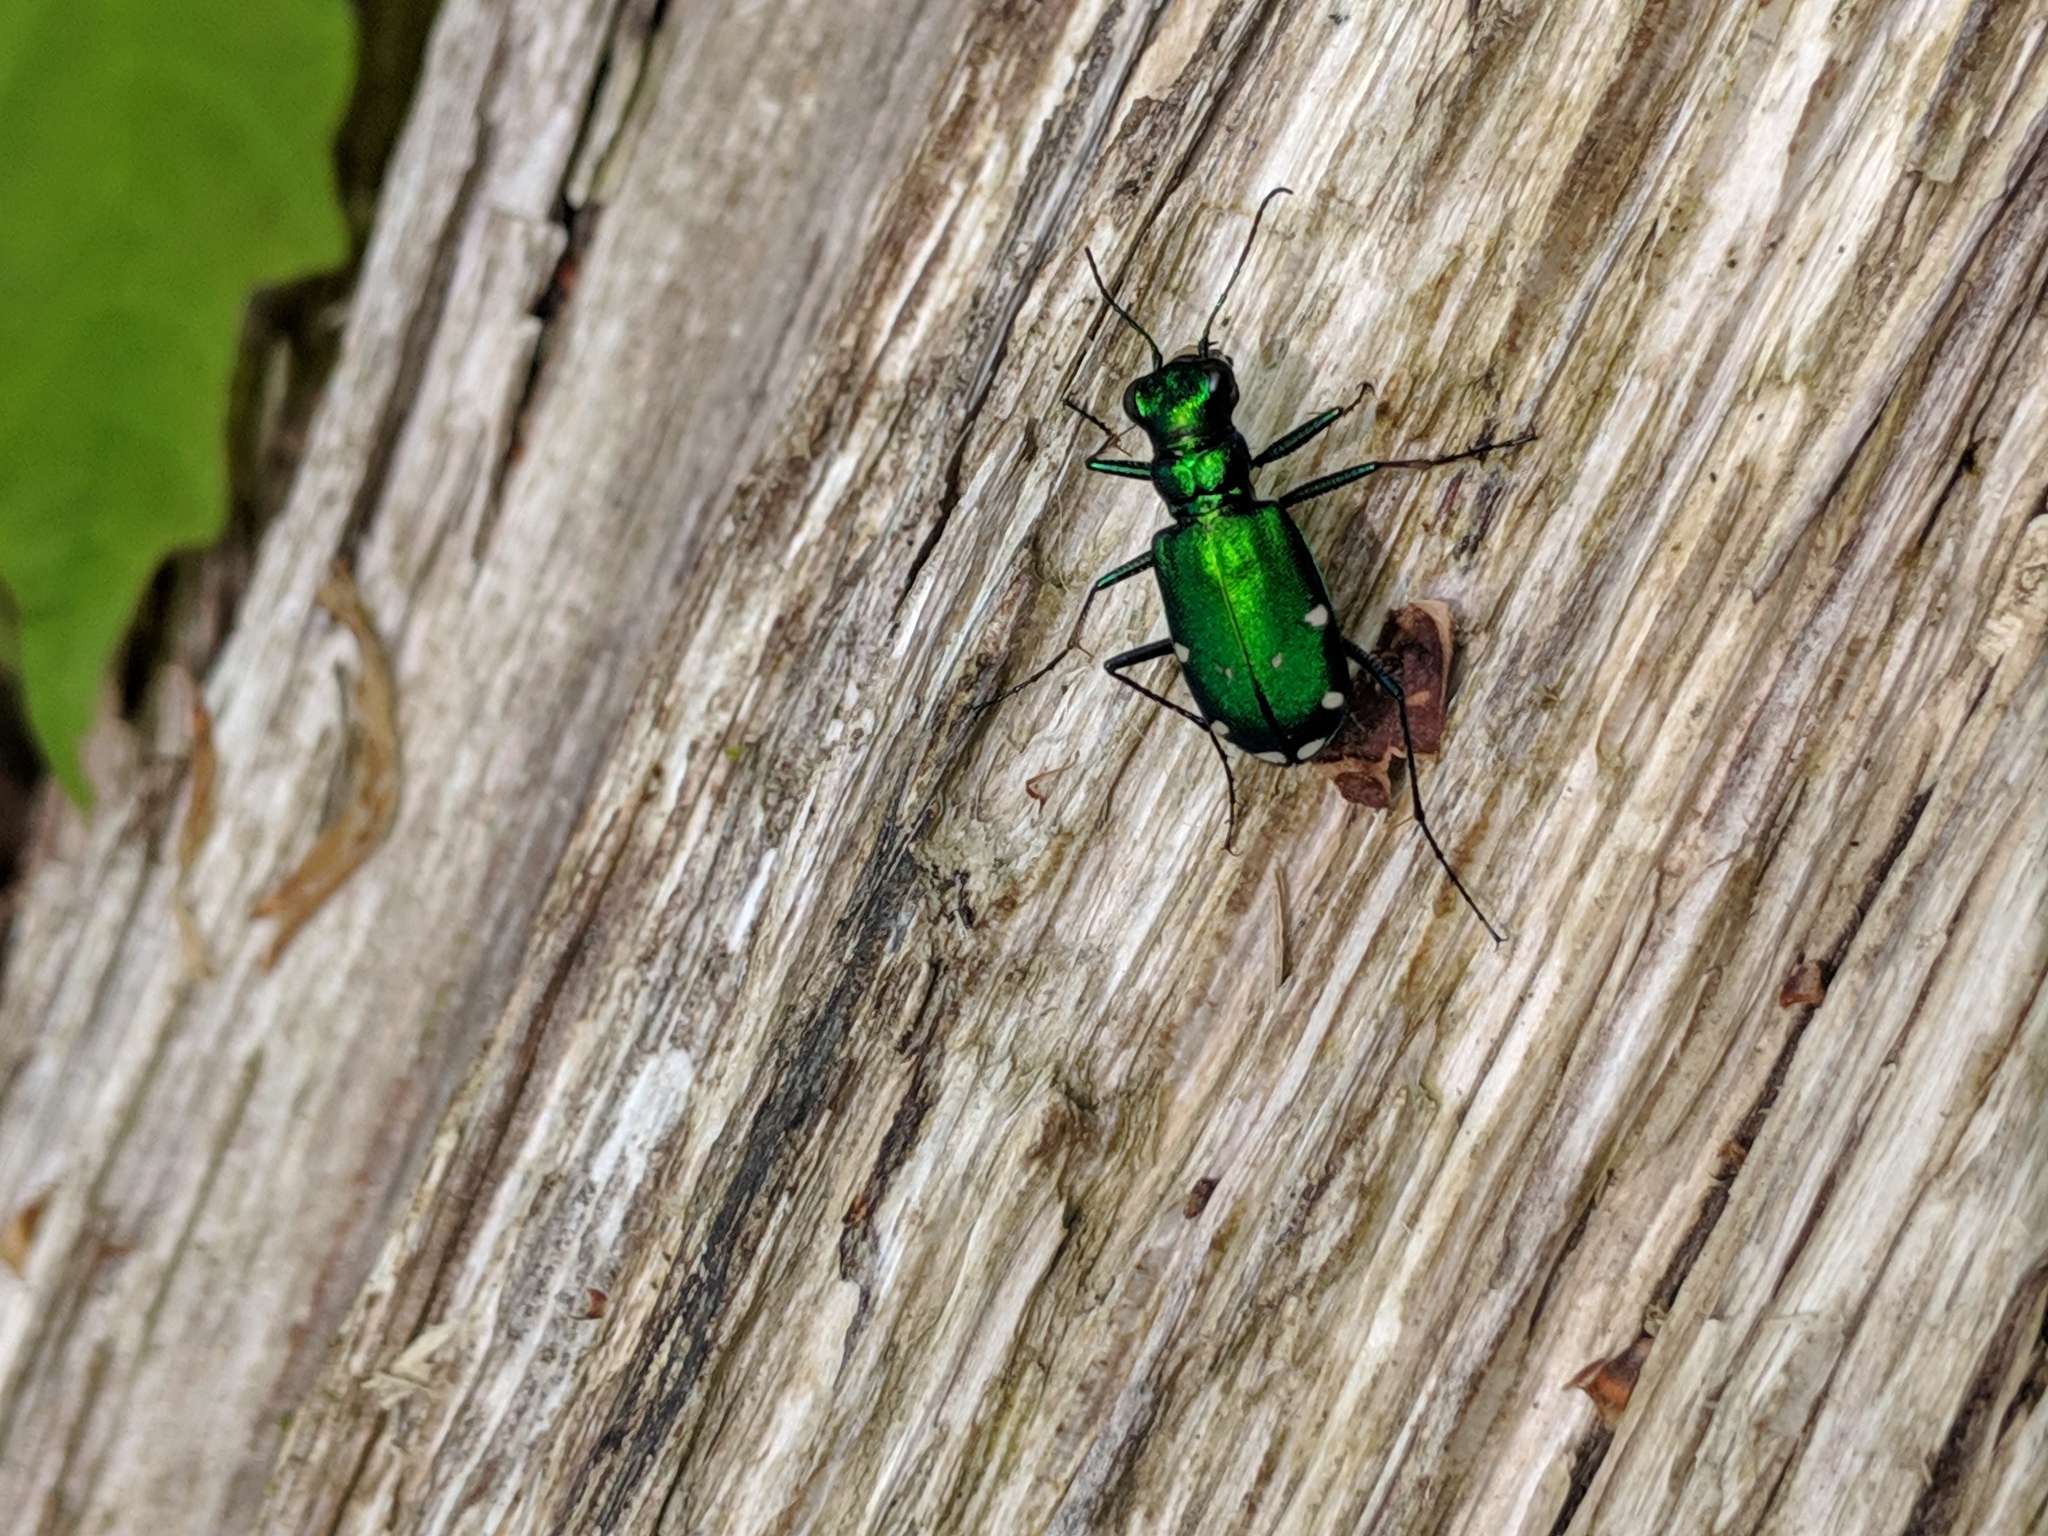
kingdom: Animalia
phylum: Arthropoda
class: Insecta
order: Coleoptera
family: Carabidae
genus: Cicindela
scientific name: Cicindela sexguttata
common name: Six-spotted tiger beetle
